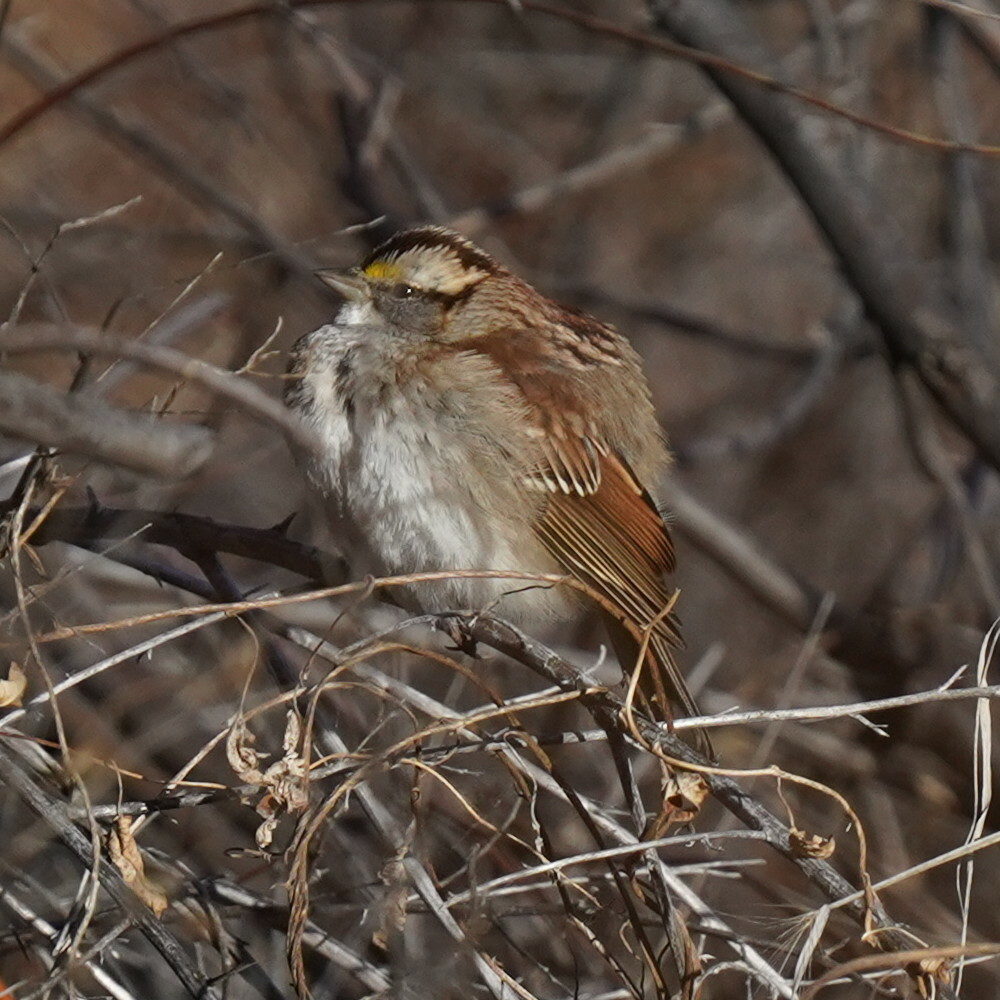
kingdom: Animalia
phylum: Chordata
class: Aves
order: Passeriformes
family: Passerellidae
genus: Zonotrichia
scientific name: Zonotrichia albicollis
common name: White-throated sparrow
